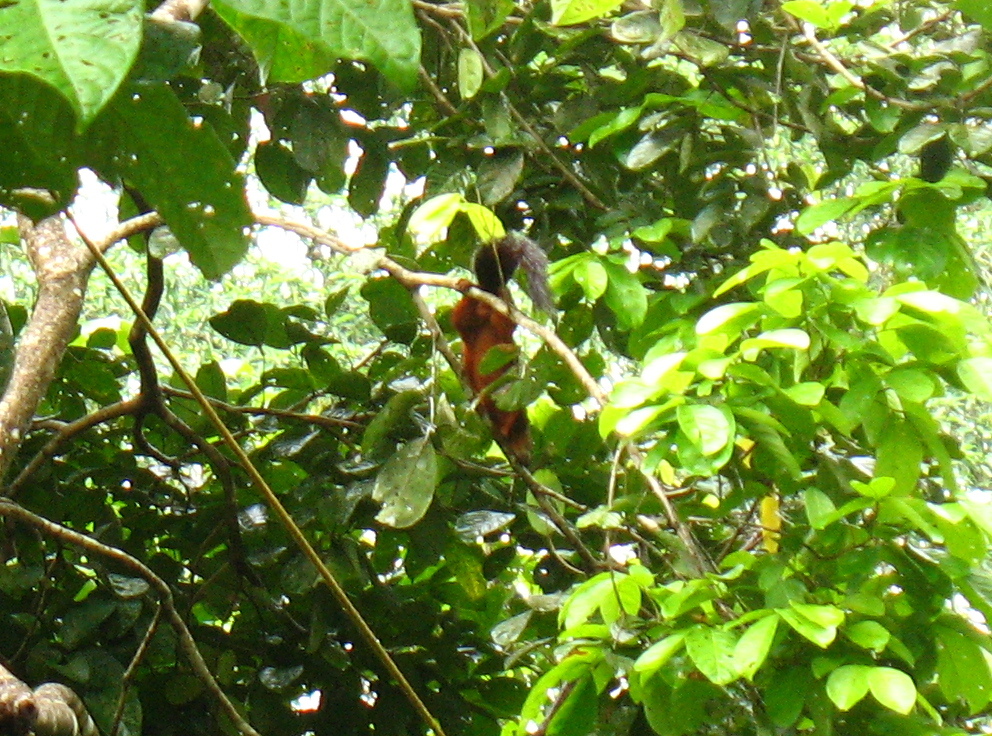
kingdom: Animalia
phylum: Chordata
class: Mammalia
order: Rodentia
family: Sciuridae
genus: Sciurus
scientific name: Sciurus variegatoides
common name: Variegated squirrel
